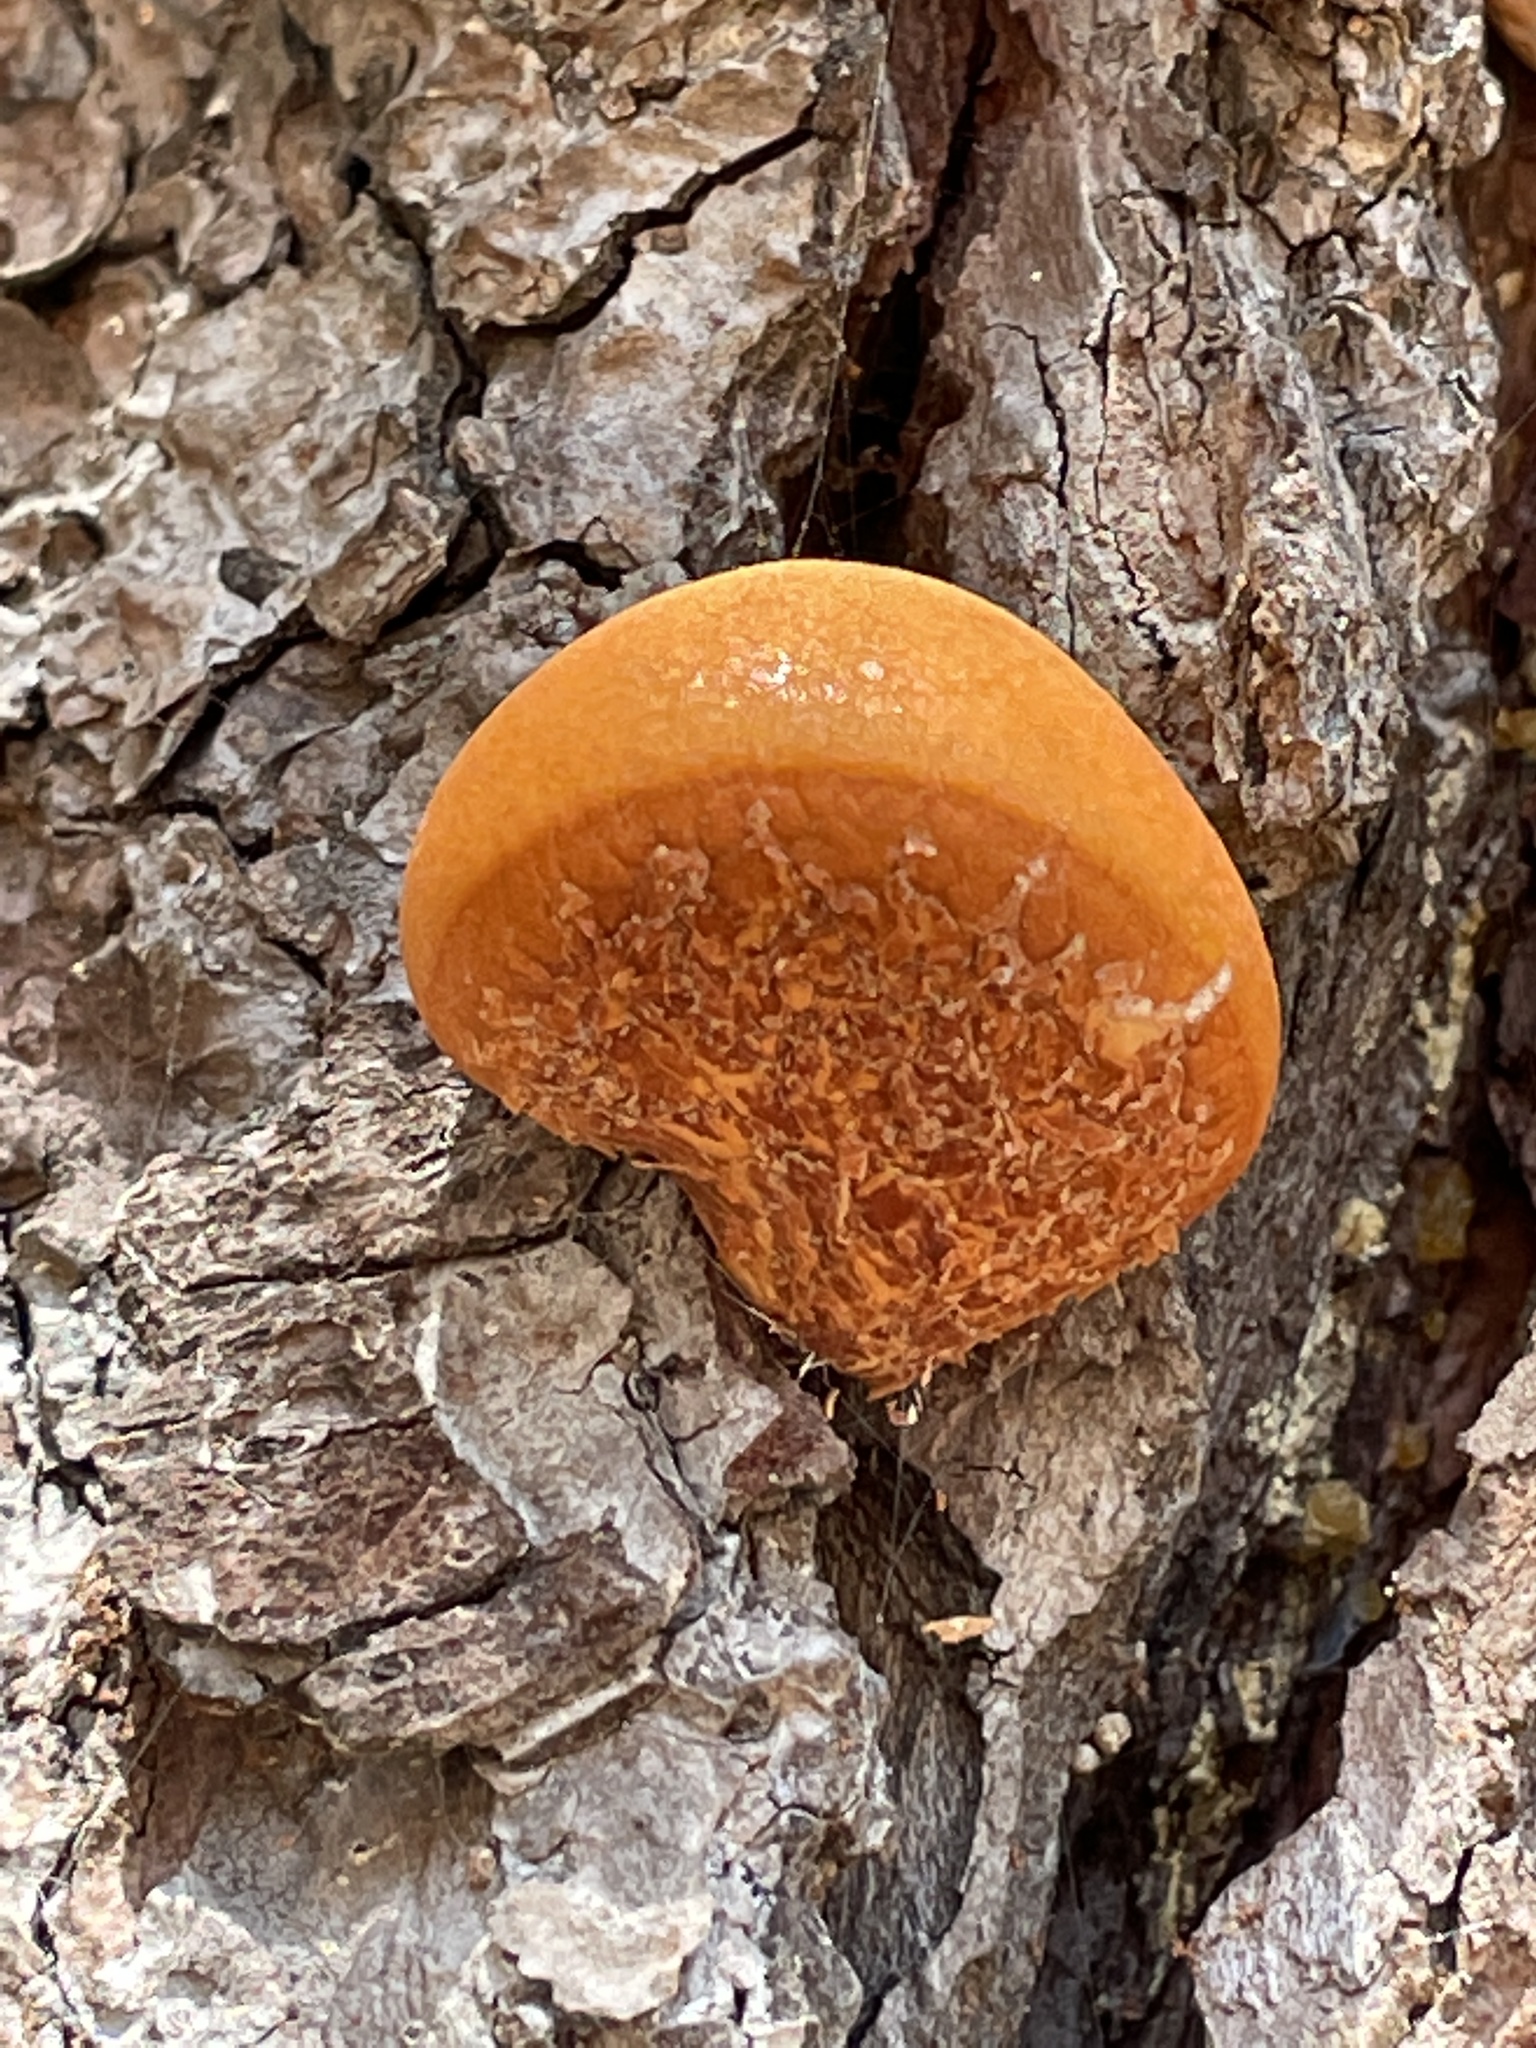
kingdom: Fungi
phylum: Basidiomycota
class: Agaricomycetes
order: Polyporales
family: Polyporaceae
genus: Cryptoporus
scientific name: Cryptoporus volvatus
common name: Veiled polypore
